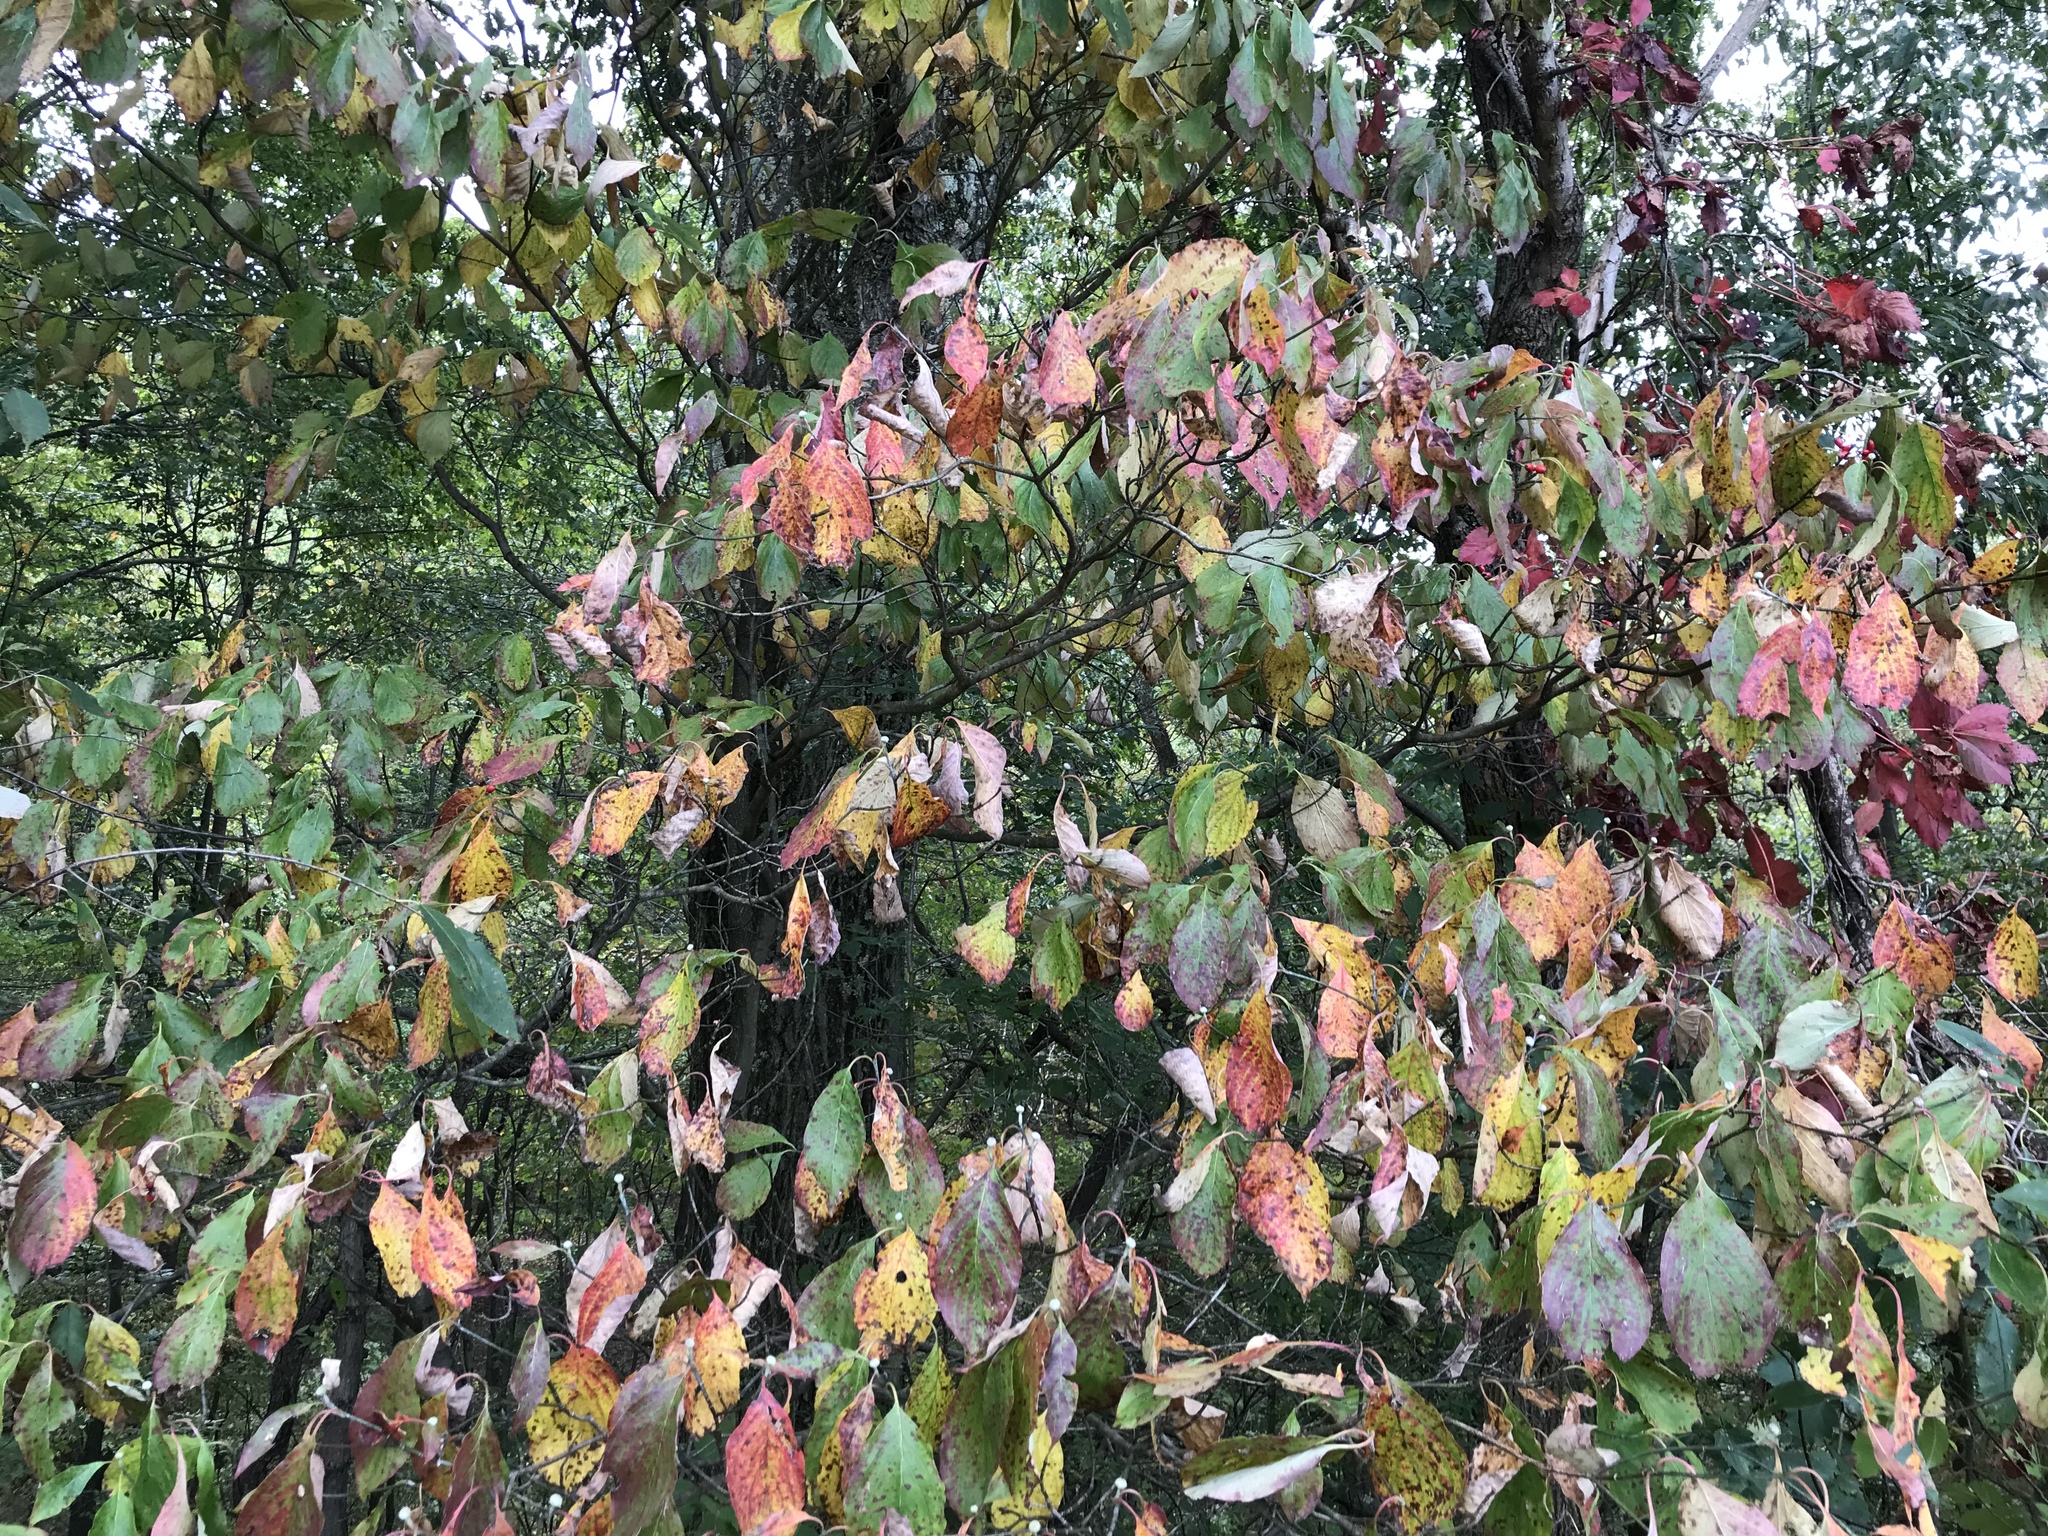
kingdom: Plantae
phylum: Tracheophyta
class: Magnoliopsida
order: Cornales
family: Cornaceae
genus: Cornus
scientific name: Cornus florida
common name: Flowering dogwood
